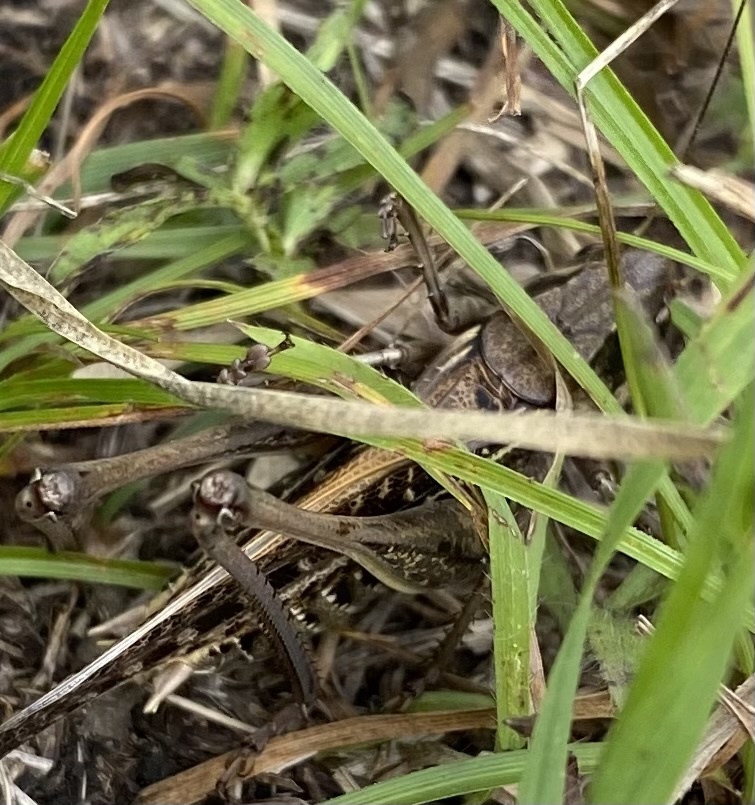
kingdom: Animalia
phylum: Arthropoda
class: Insecta
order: Orthoptera
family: Tettigoniidae
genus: Decticus
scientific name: Decticus albifrons
